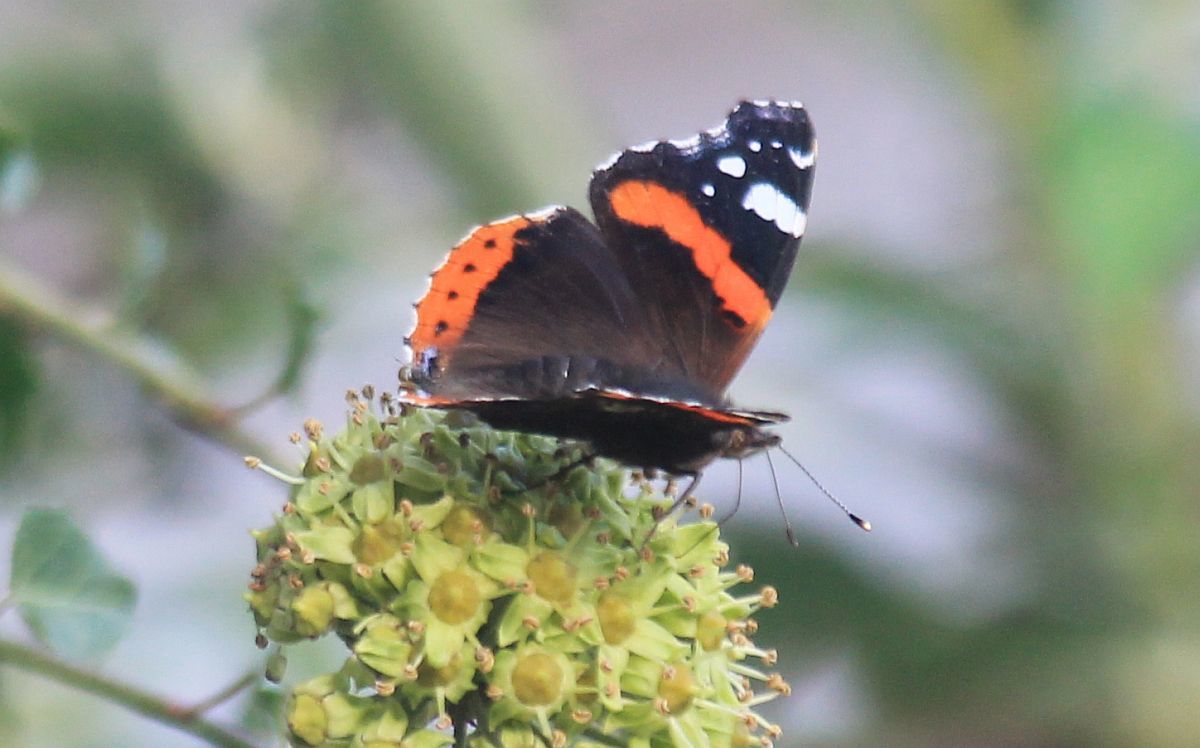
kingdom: Animalia
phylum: Arthropoda
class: Insecta
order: Lepidoptera
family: Nymphalidae
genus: Vanessa
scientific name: Vanessa atalanta
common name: Red admiral
